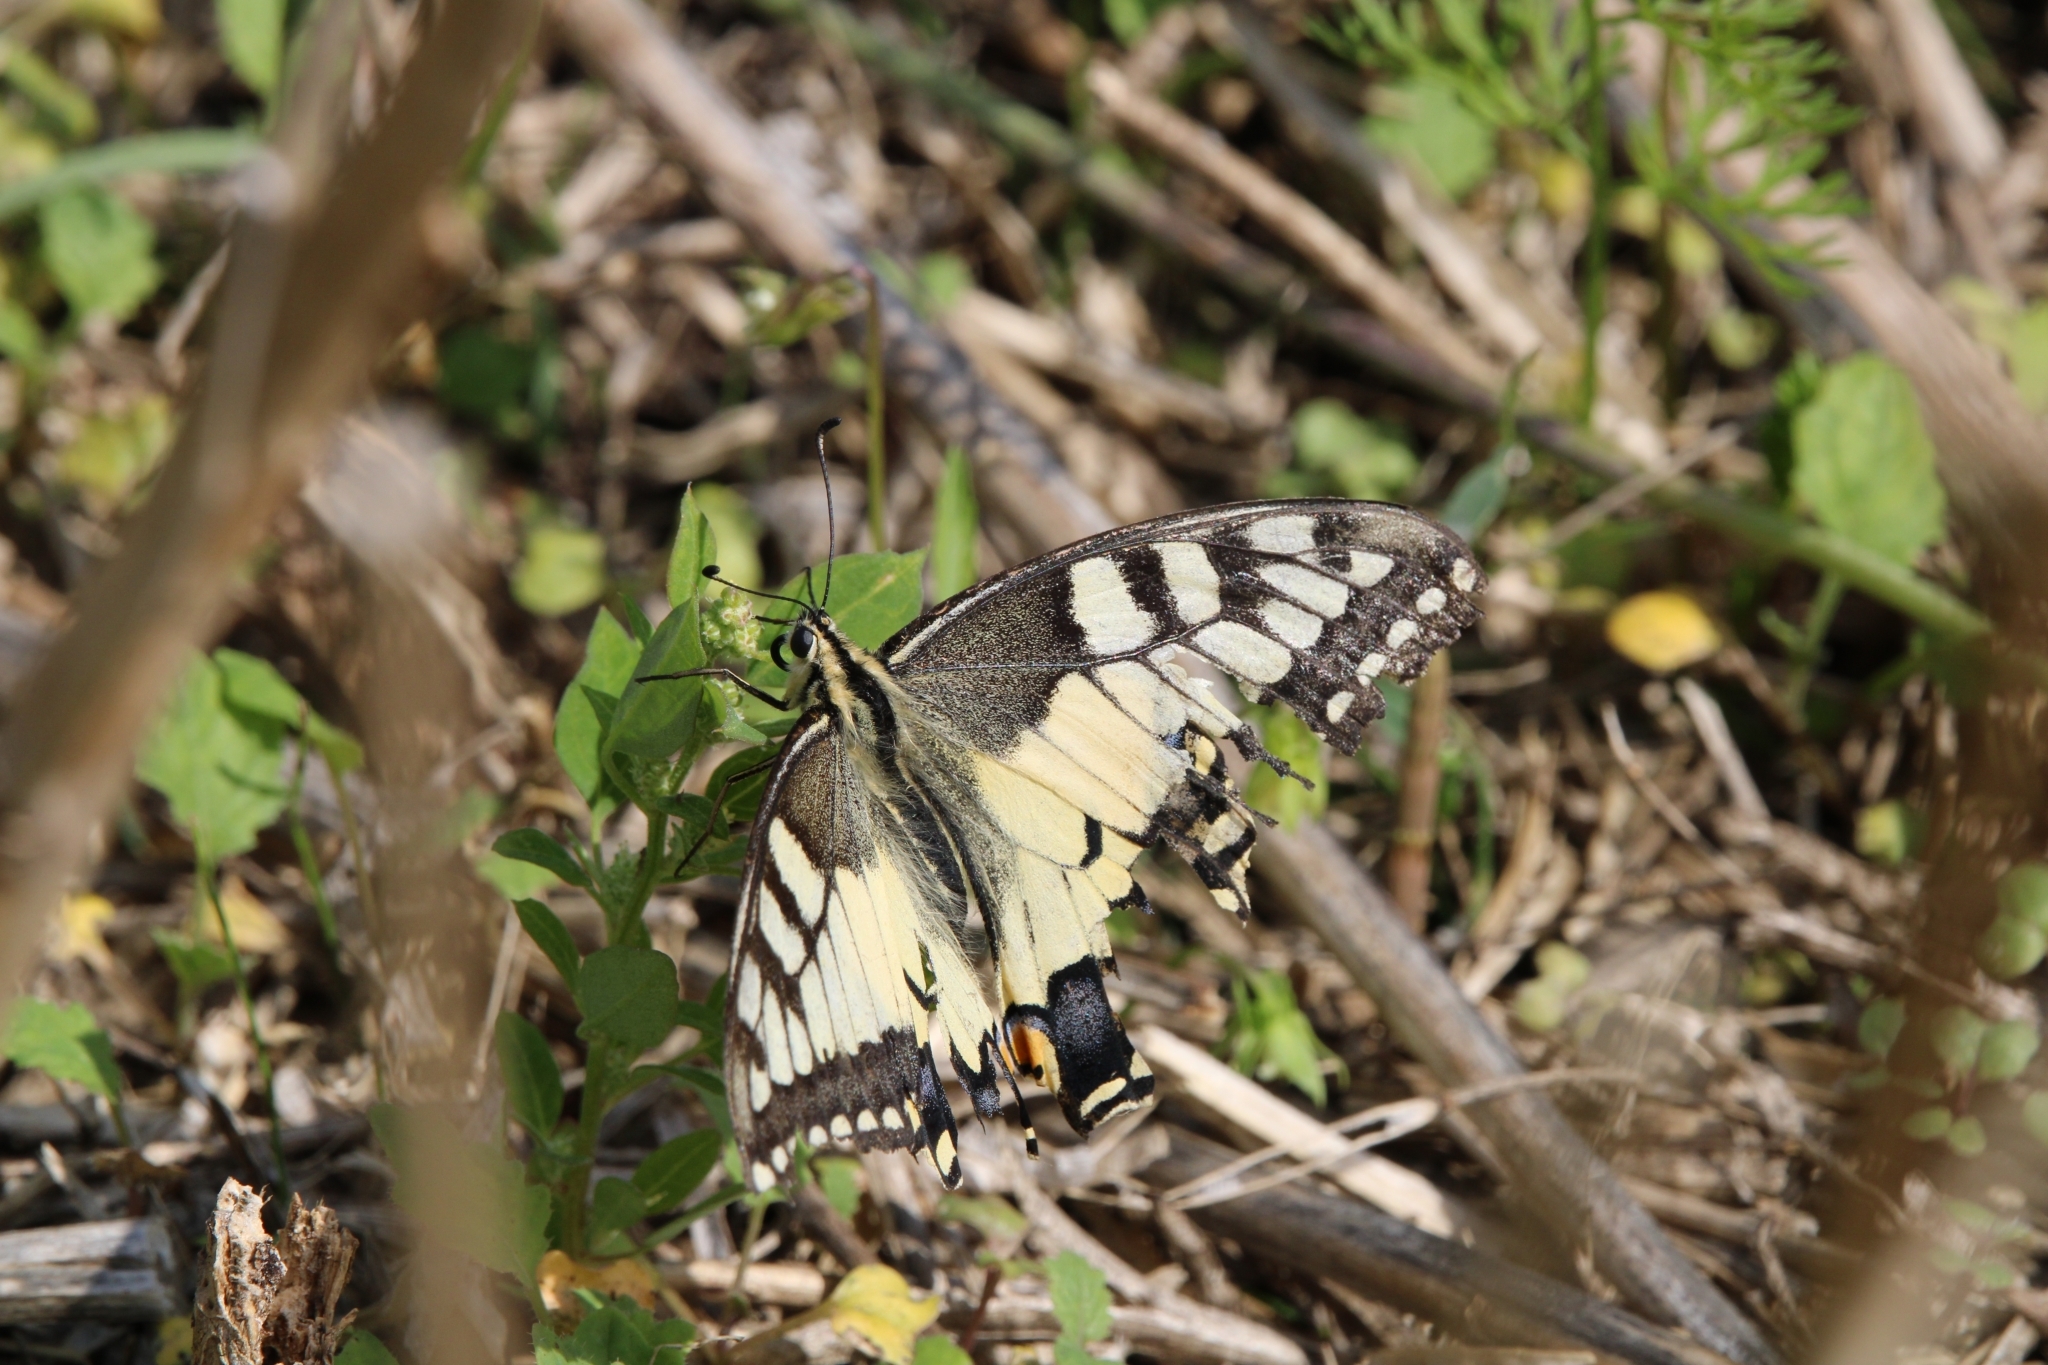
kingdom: Animalia
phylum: Arthropoda
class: Insecta
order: Lepidoptera
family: Papilionidae
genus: Papilio
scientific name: Papilio machaon
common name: Swallowtail
